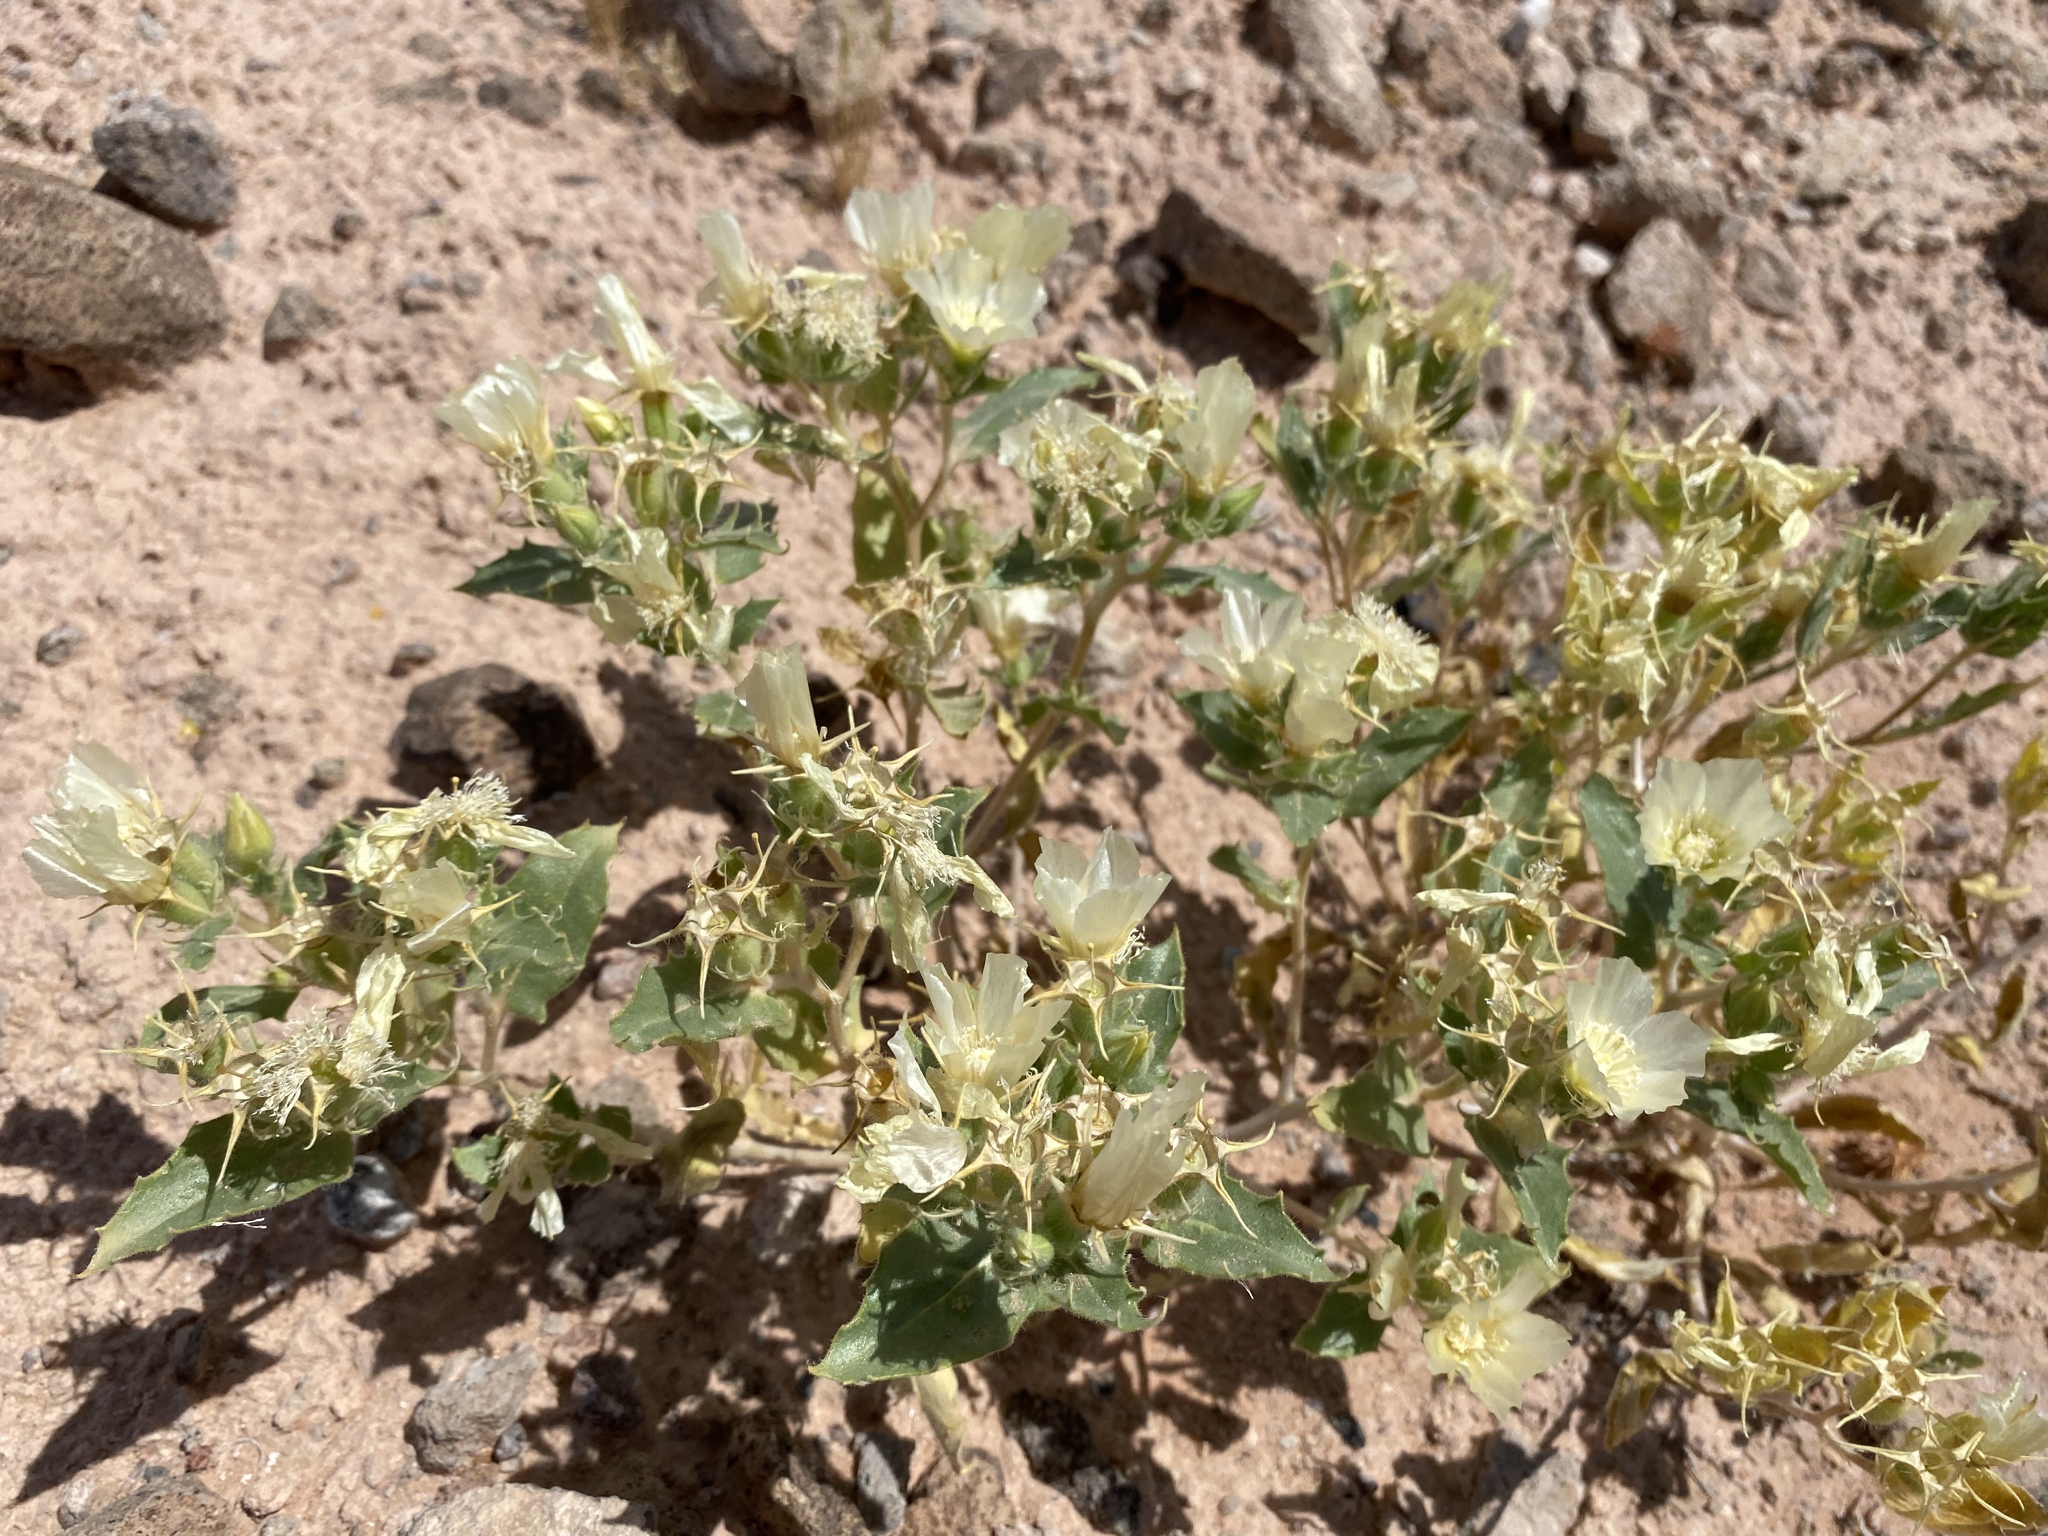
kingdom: Plantae
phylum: Tracheophyta
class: Magnoliopsida
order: Cornales
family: Loasaceae
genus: Mentzelia
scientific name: Mentzelia tricuspis
